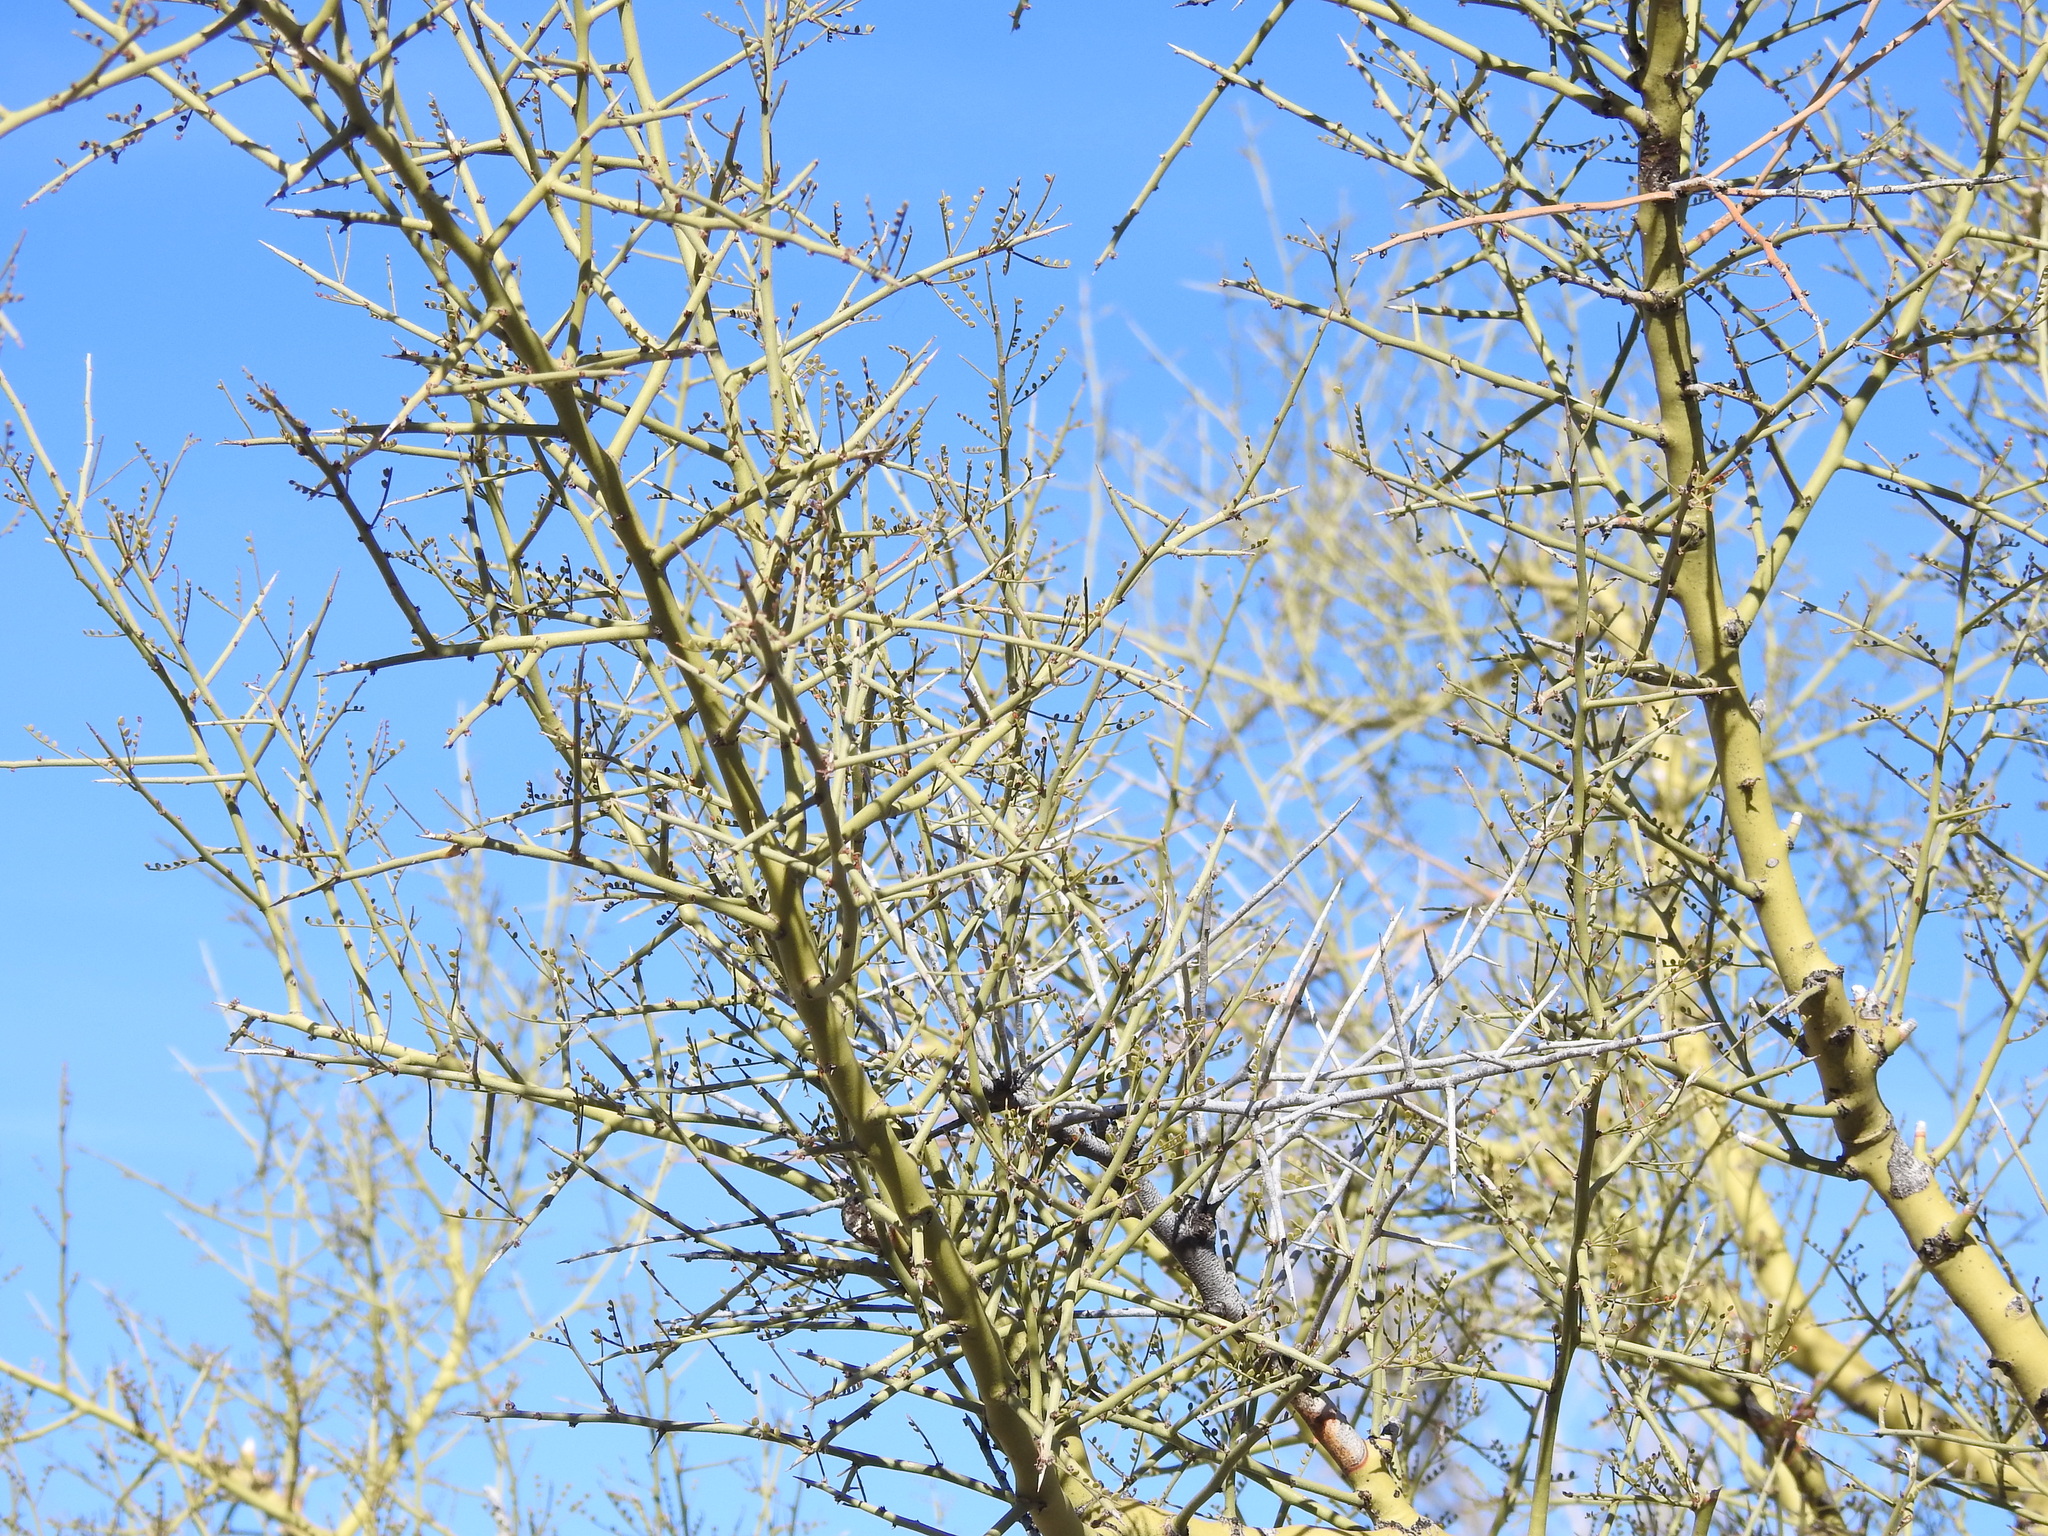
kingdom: Plantae
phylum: Tracheophyta
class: Magnoliopsida
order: Fabales
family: Fabaceae
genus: Parkinsonia
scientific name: Parkinsonia microphylla
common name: Yellow paloverde
